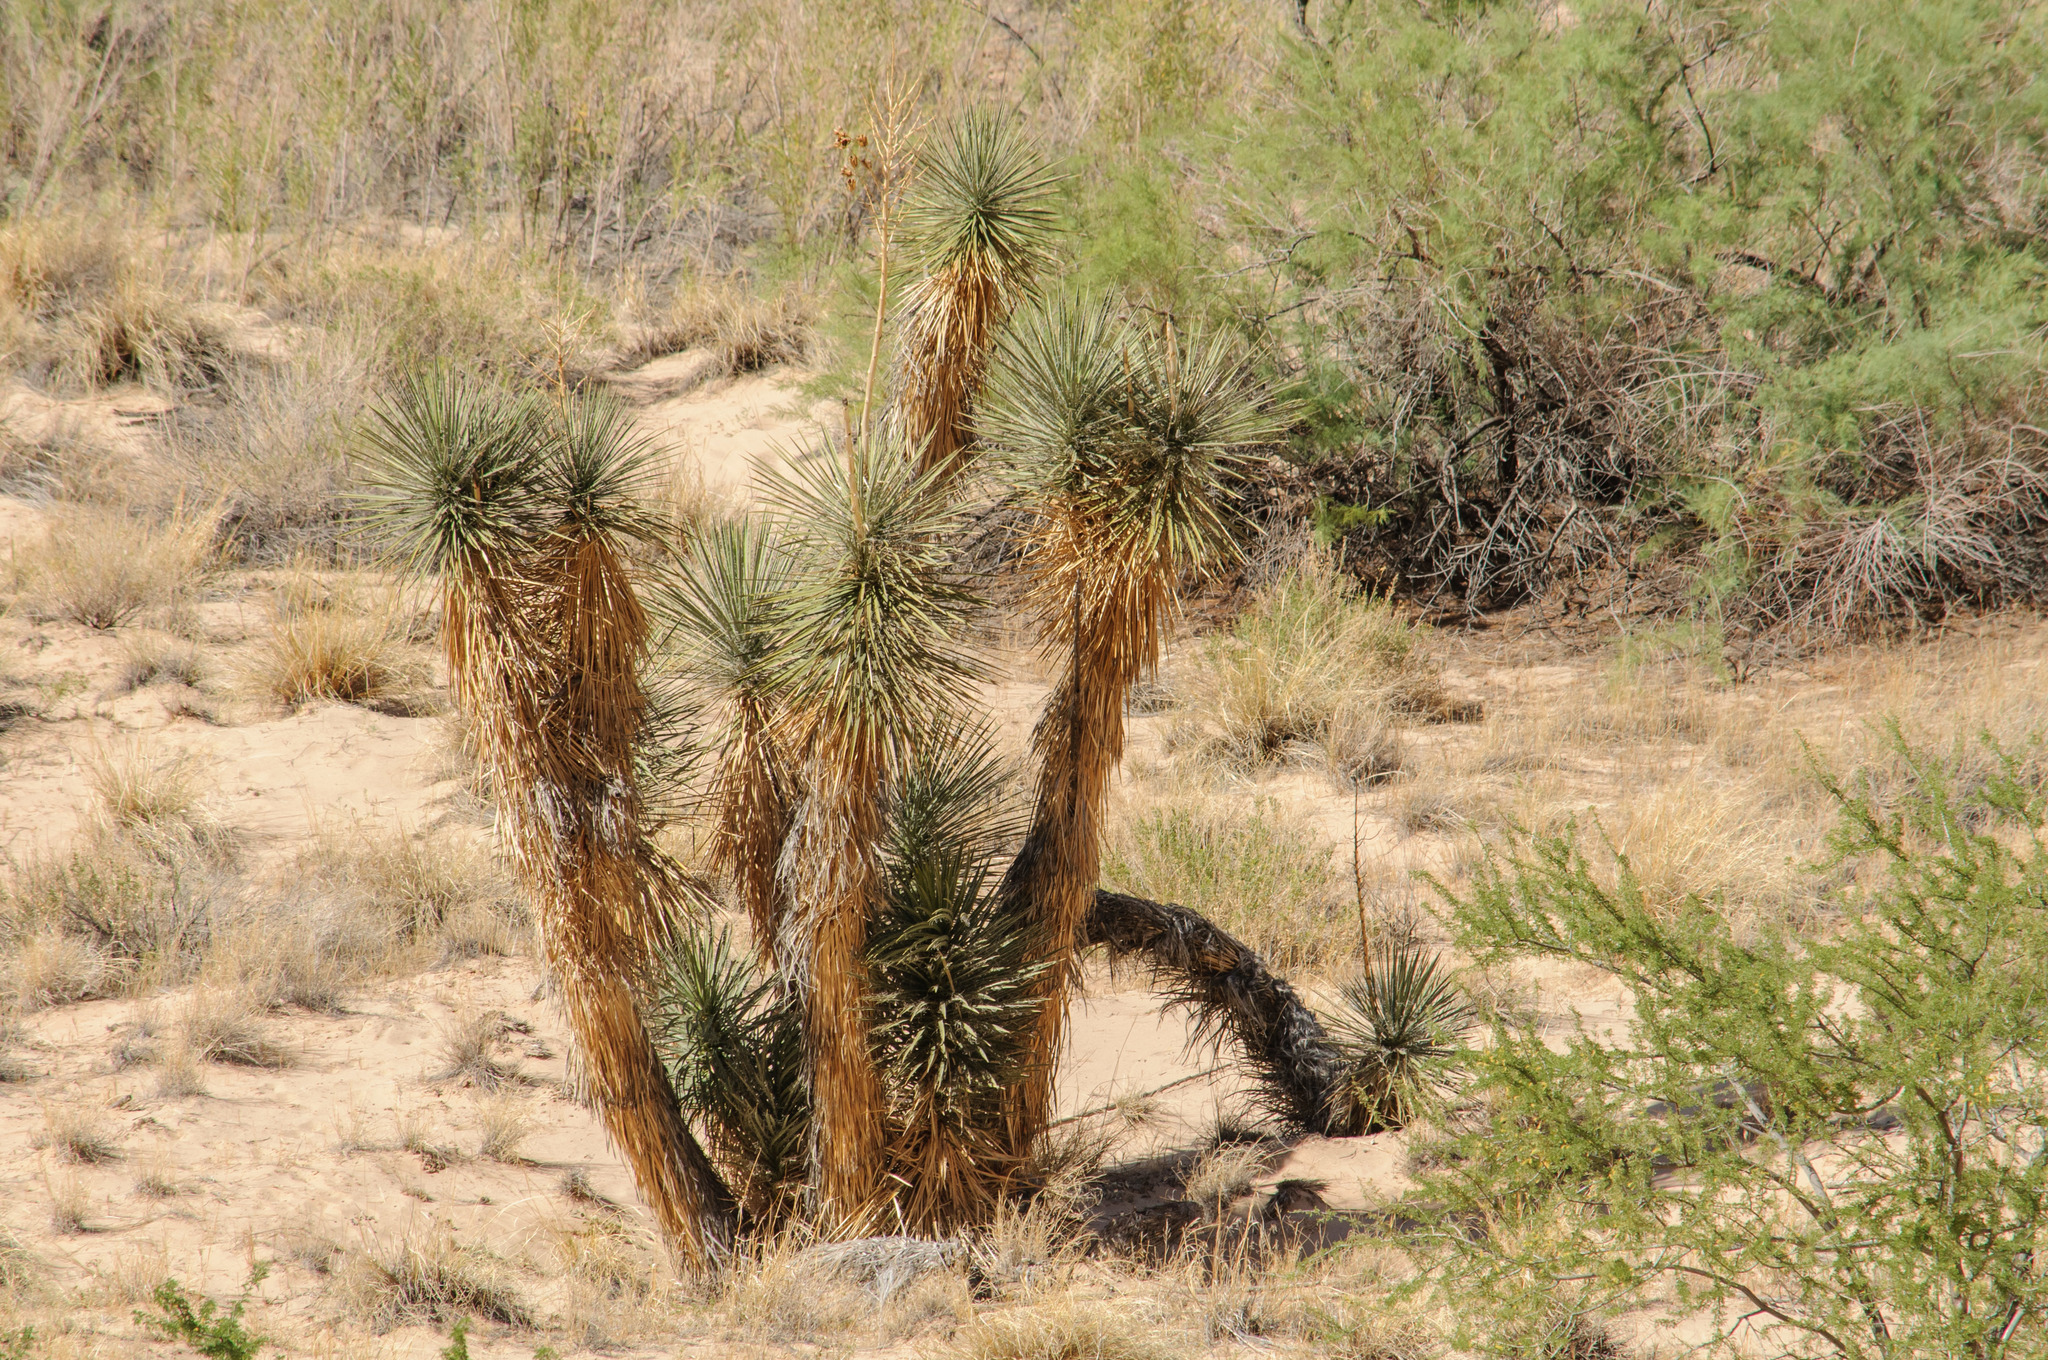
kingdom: Plantae
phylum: Tracheophyta
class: Liliopsida
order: Asparagales
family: Asparagaceae
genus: Yucca
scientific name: Yucca elata
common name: Palmella
